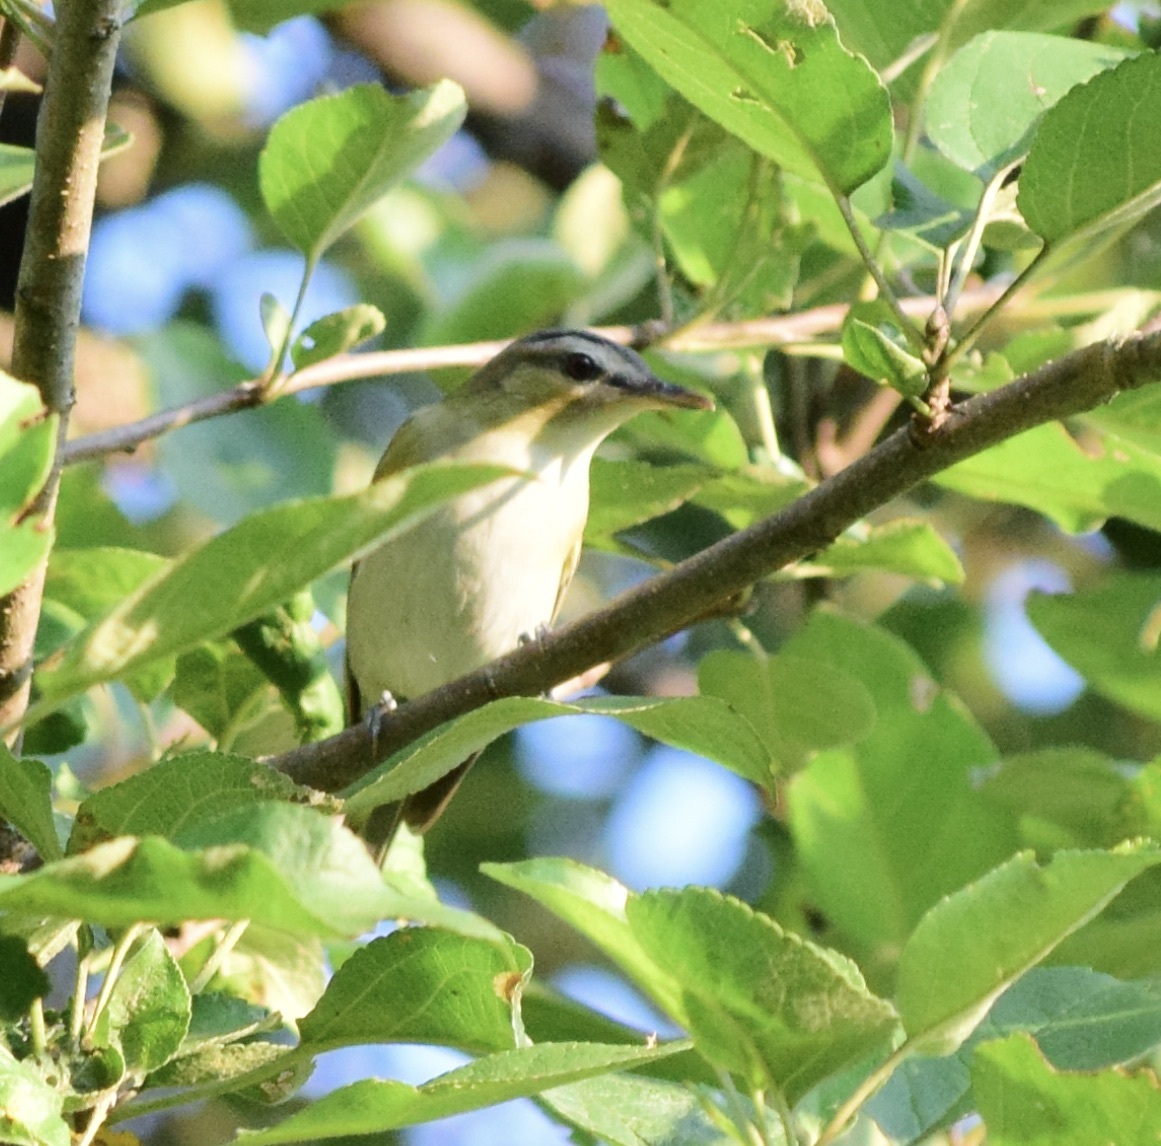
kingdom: Animalia
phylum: Chordata
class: Aves
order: Passeriformes
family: Vireonidae
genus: Vireo
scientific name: Vireo olivaceus
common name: Red-eyed vireo
